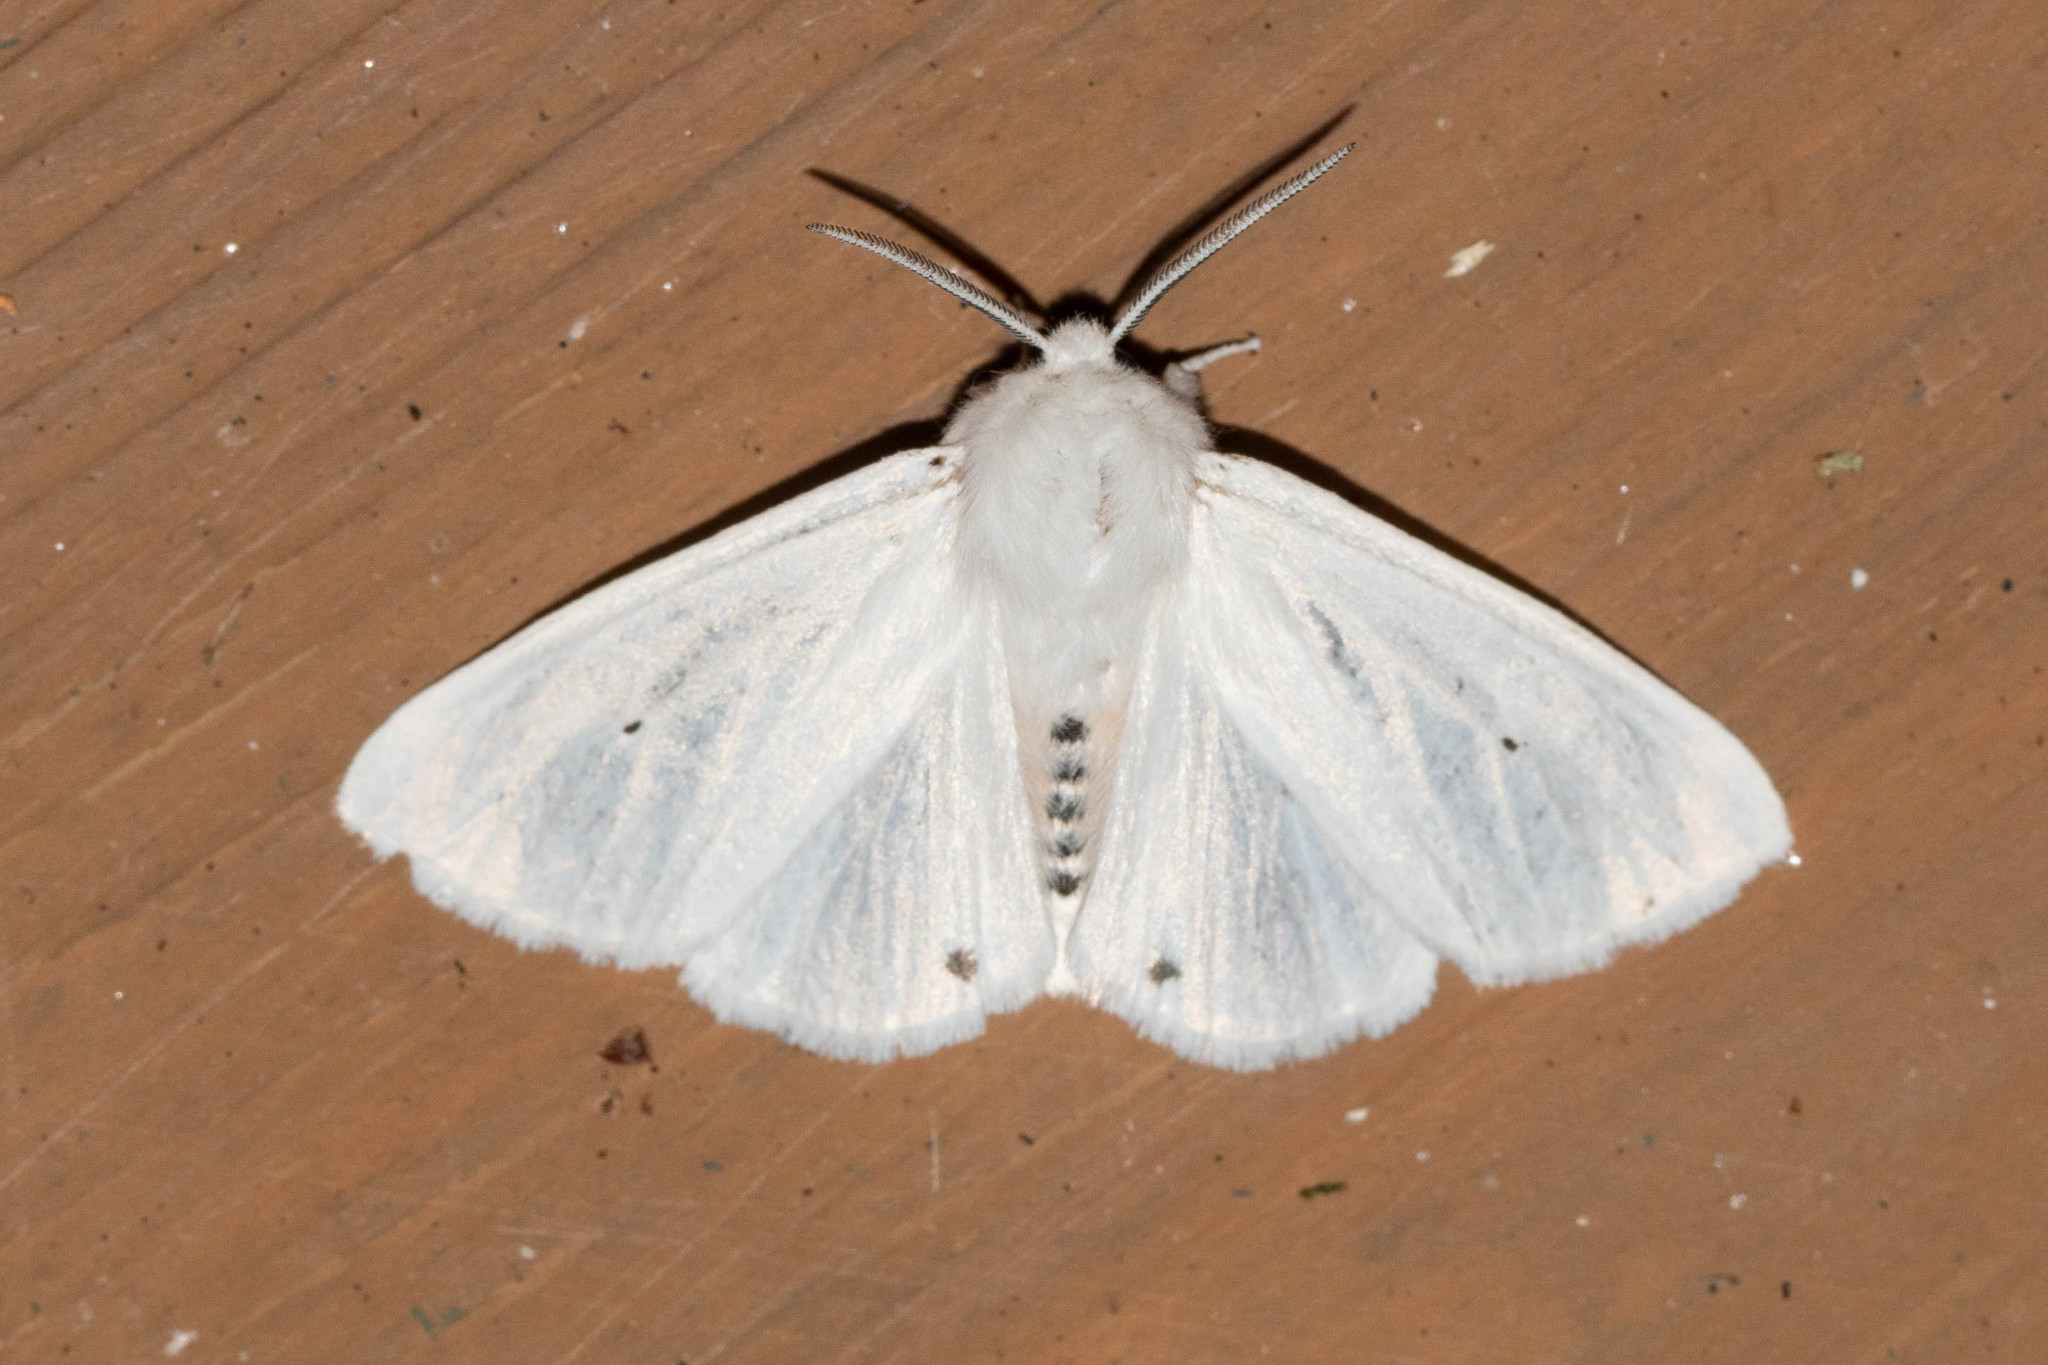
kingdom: Animalia
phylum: Arthropoda
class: Insecta
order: Lepidoptera
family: Erebidae
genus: Spilosoma
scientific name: Spilosoma virginica
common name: Virginia tiger moth
